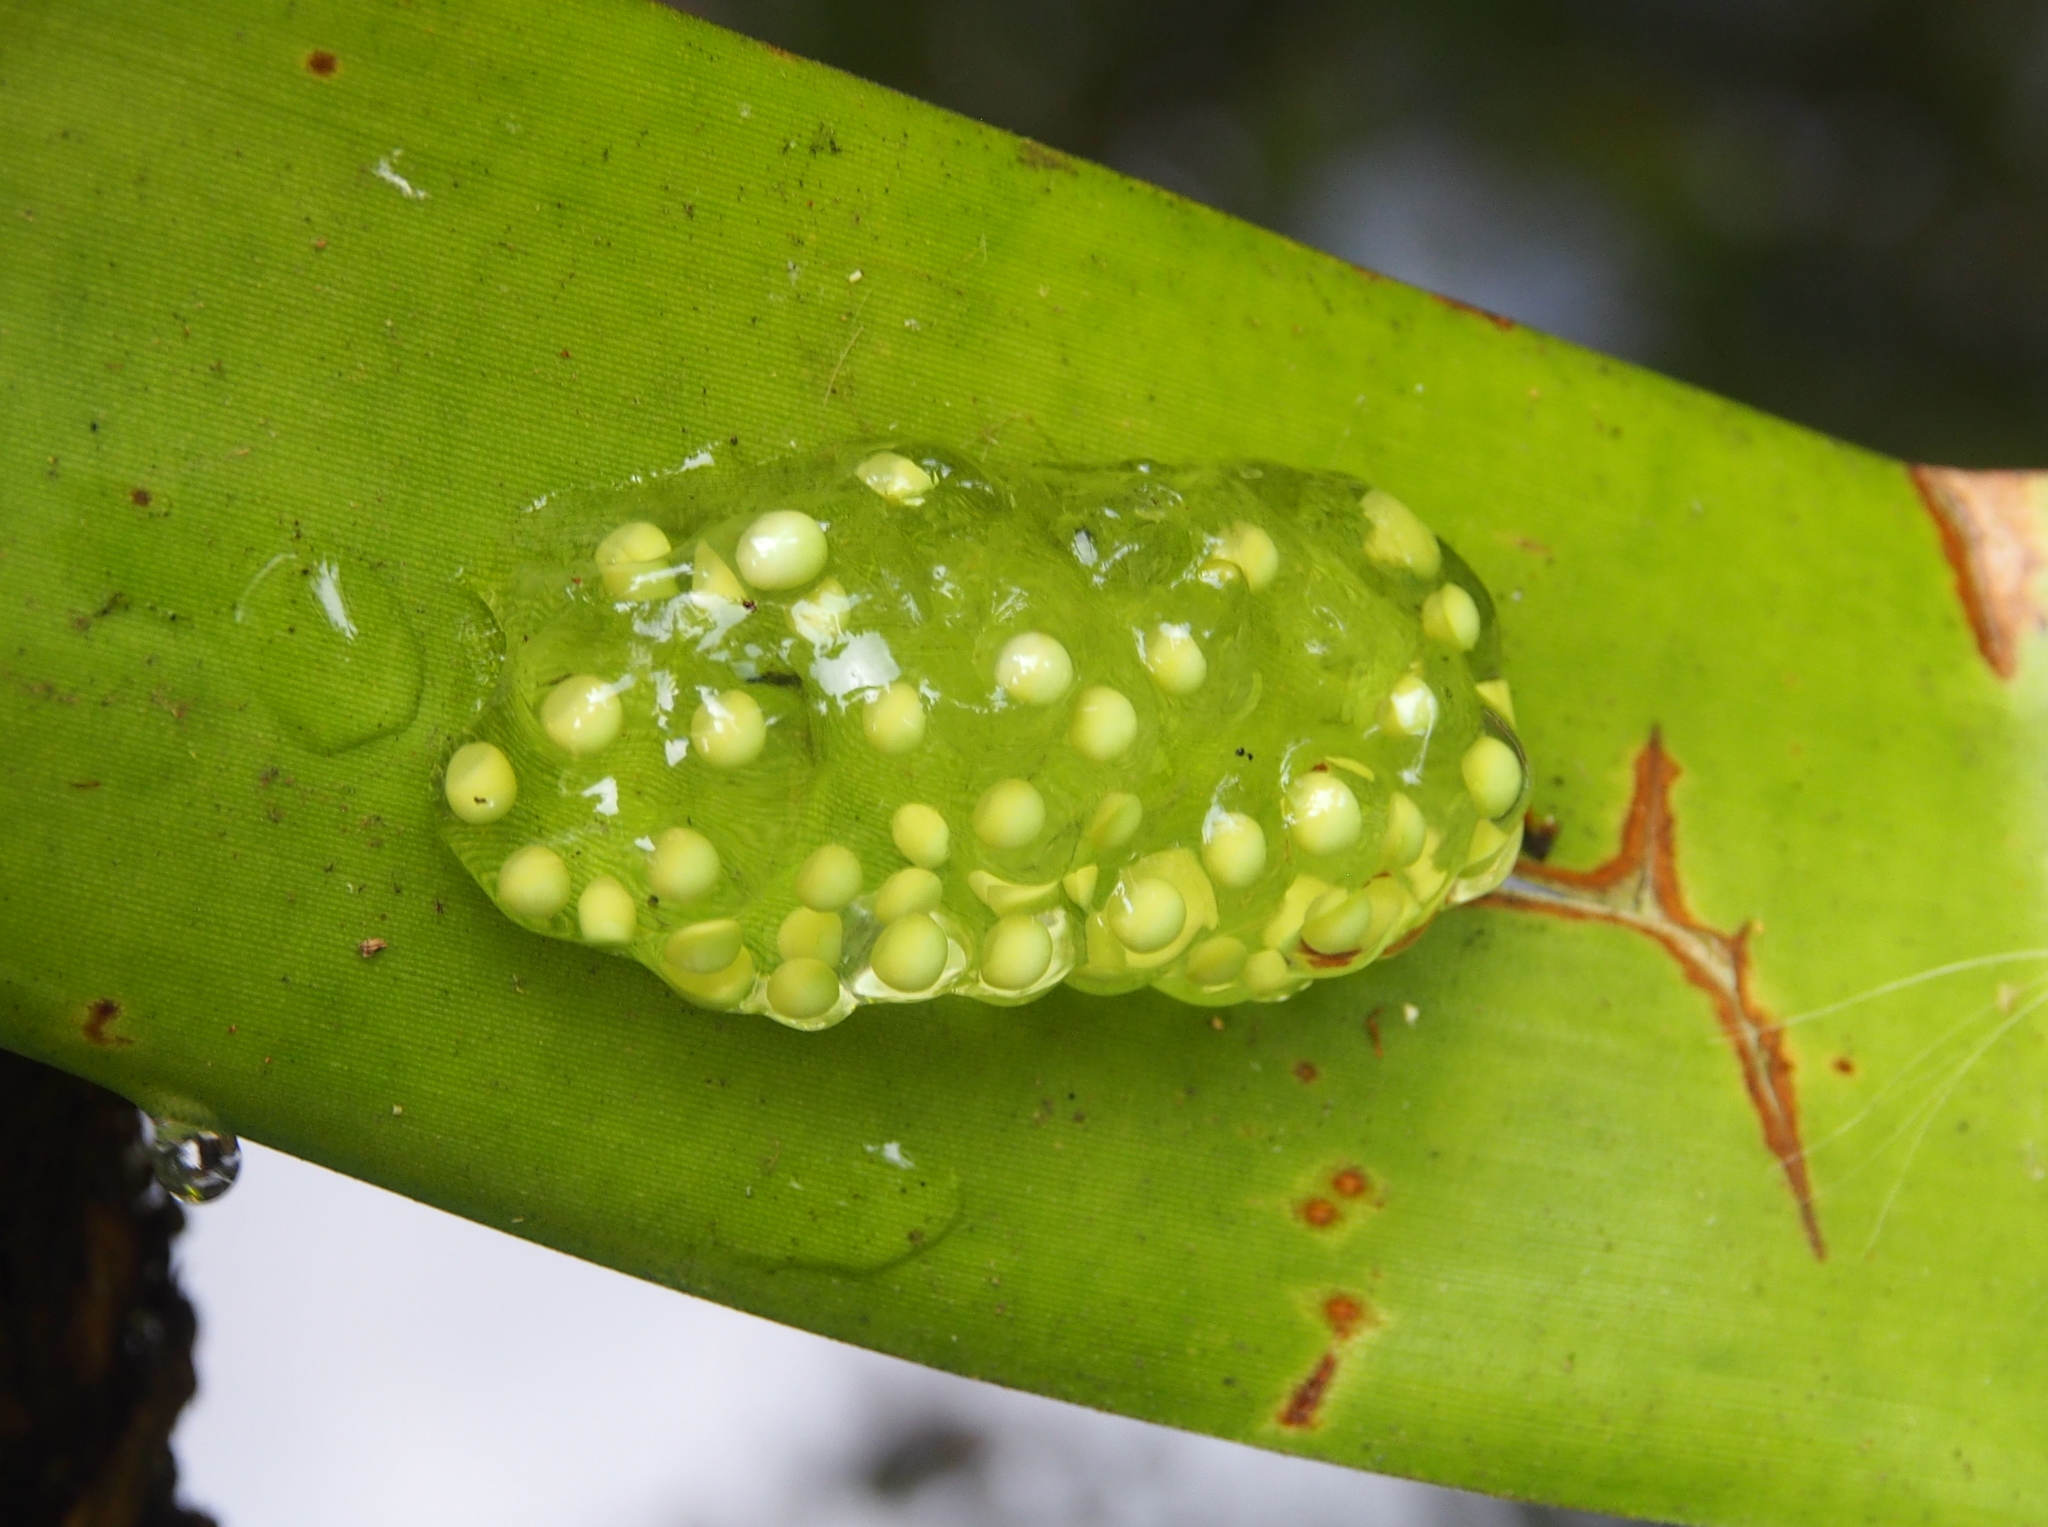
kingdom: Animalia
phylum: Chordata
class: Amphibia
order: Anura
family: Phyllomedusidae
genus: Agalychnis
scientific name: Agalychnis callidryas
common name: Red-eyed treefrog
